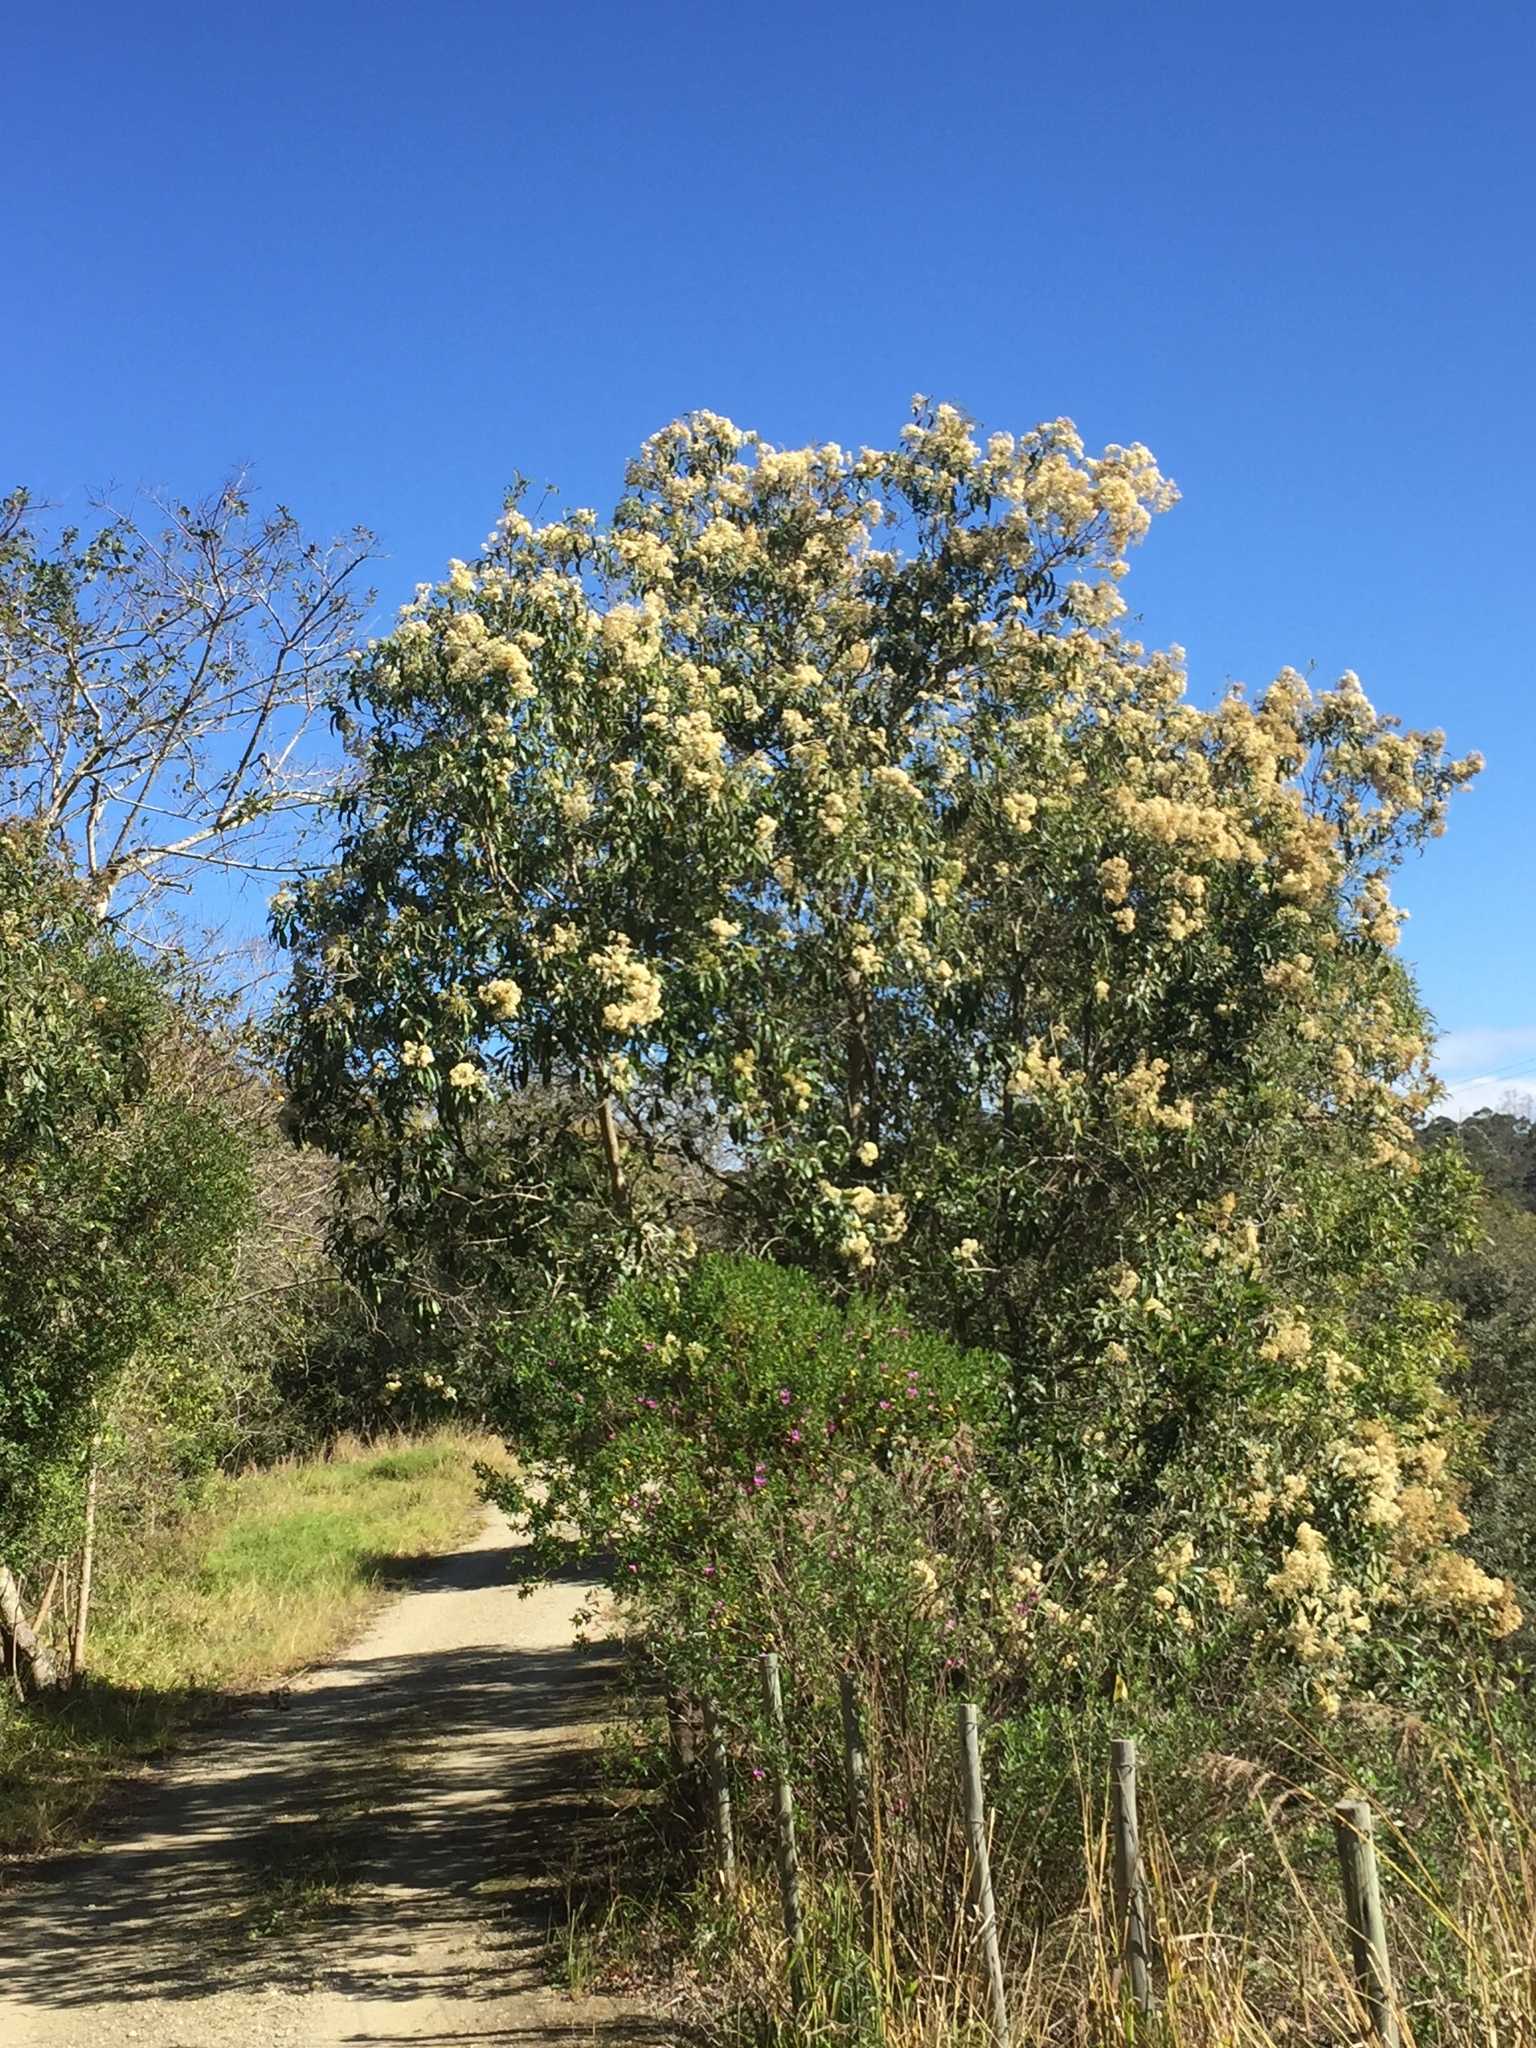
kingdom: Plantae
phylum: Tracheophyta
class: Magnoliopsida
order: Lamiales
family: Stilbaceae
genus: Nuxia
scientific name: Nuxia floribunda
